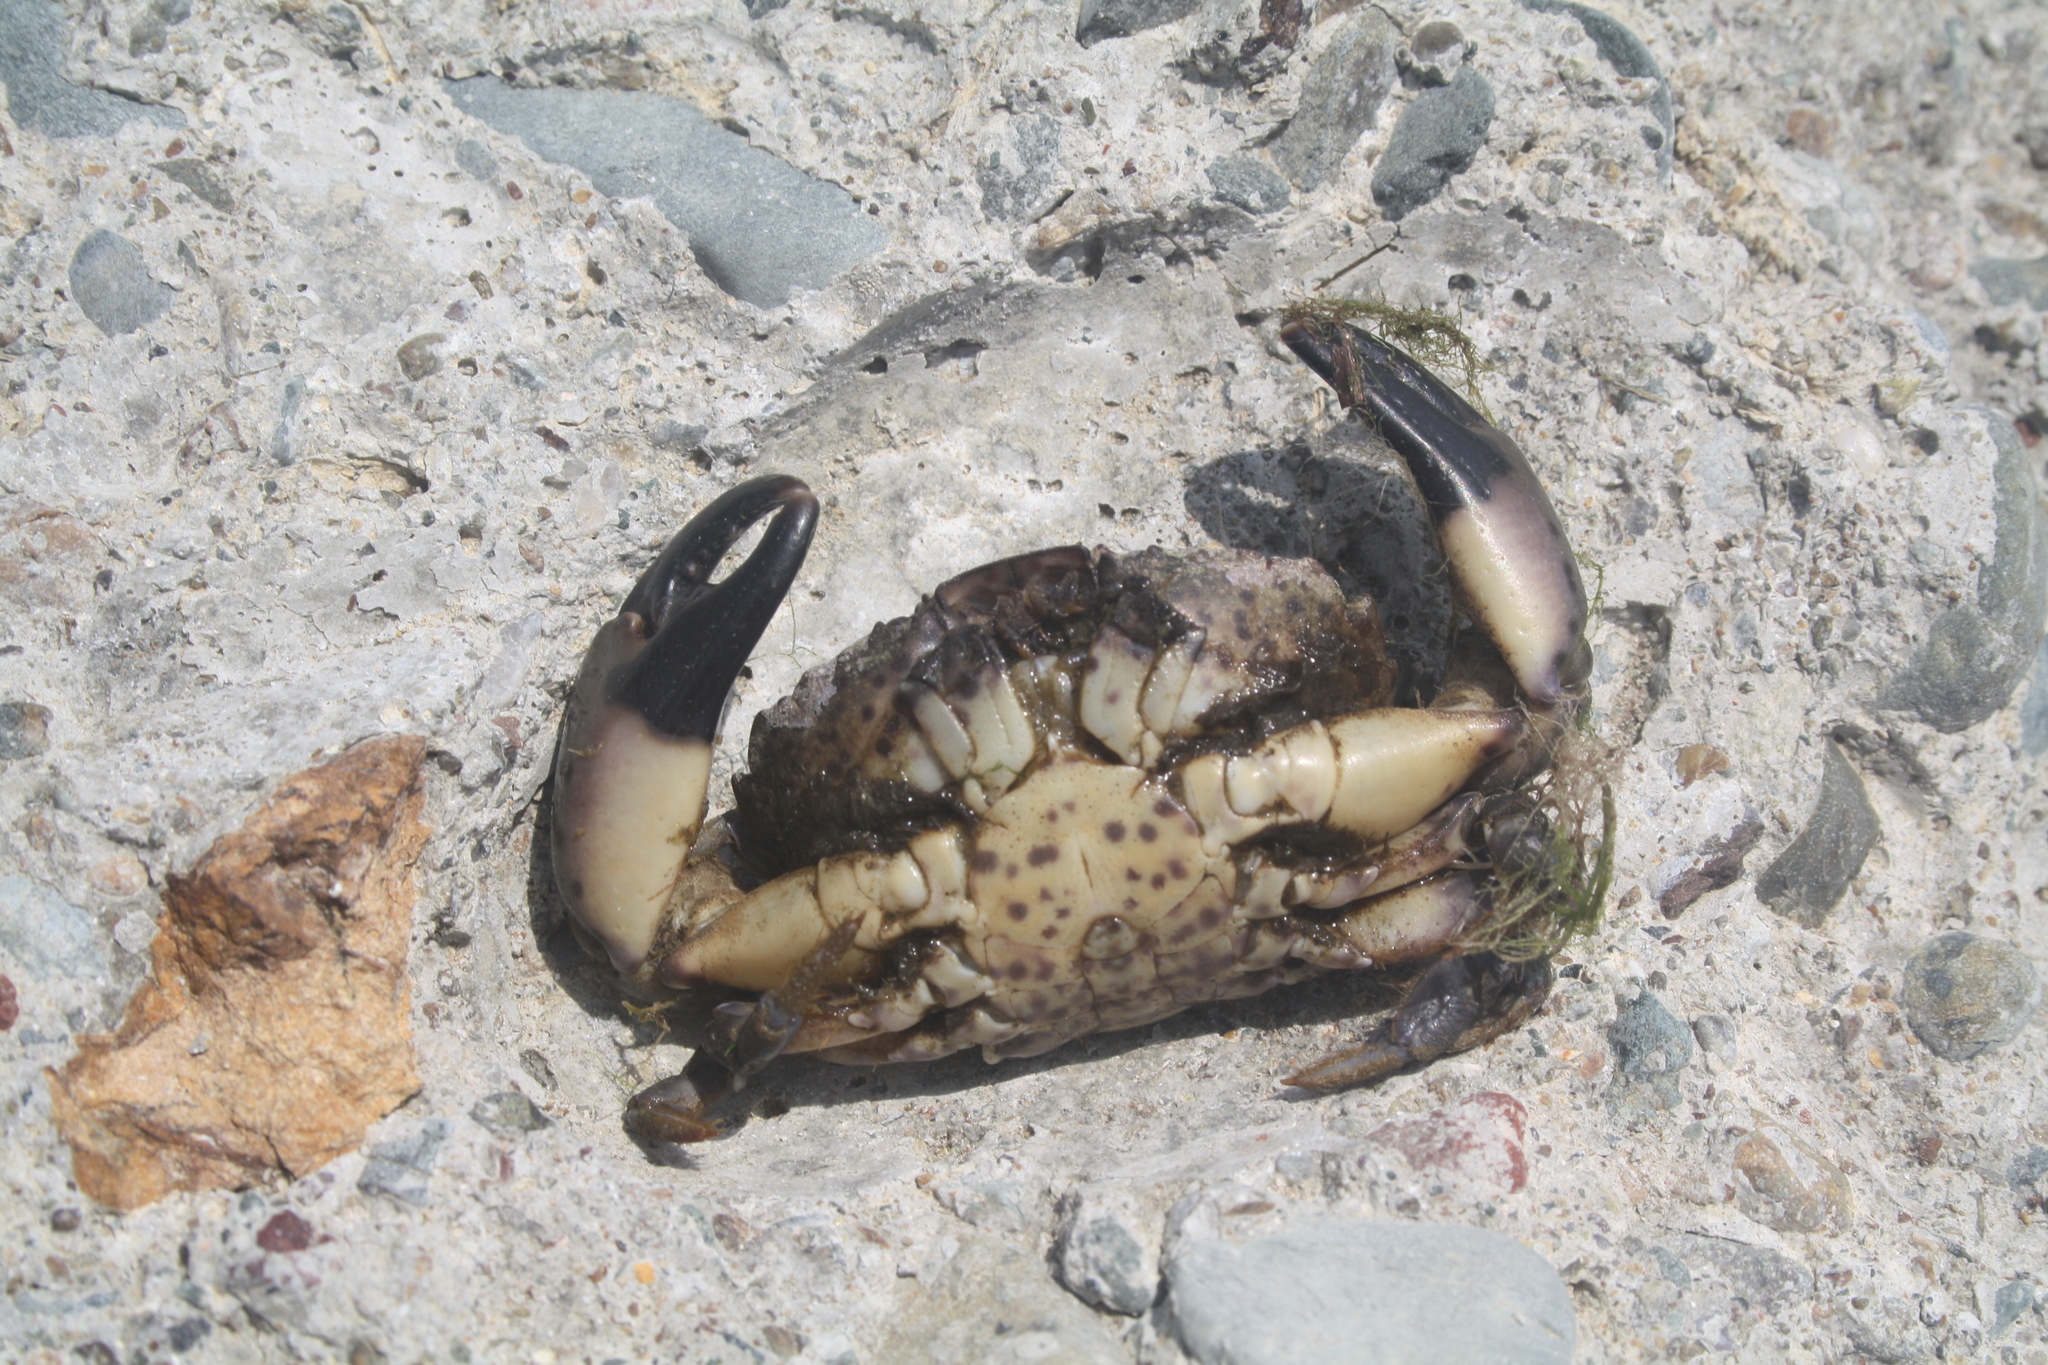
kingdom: Animalia
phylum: Arthropoda
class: Malacostraca
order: Decapoda
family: Xanthidae
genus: Xantho
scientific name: Xantho poressa
